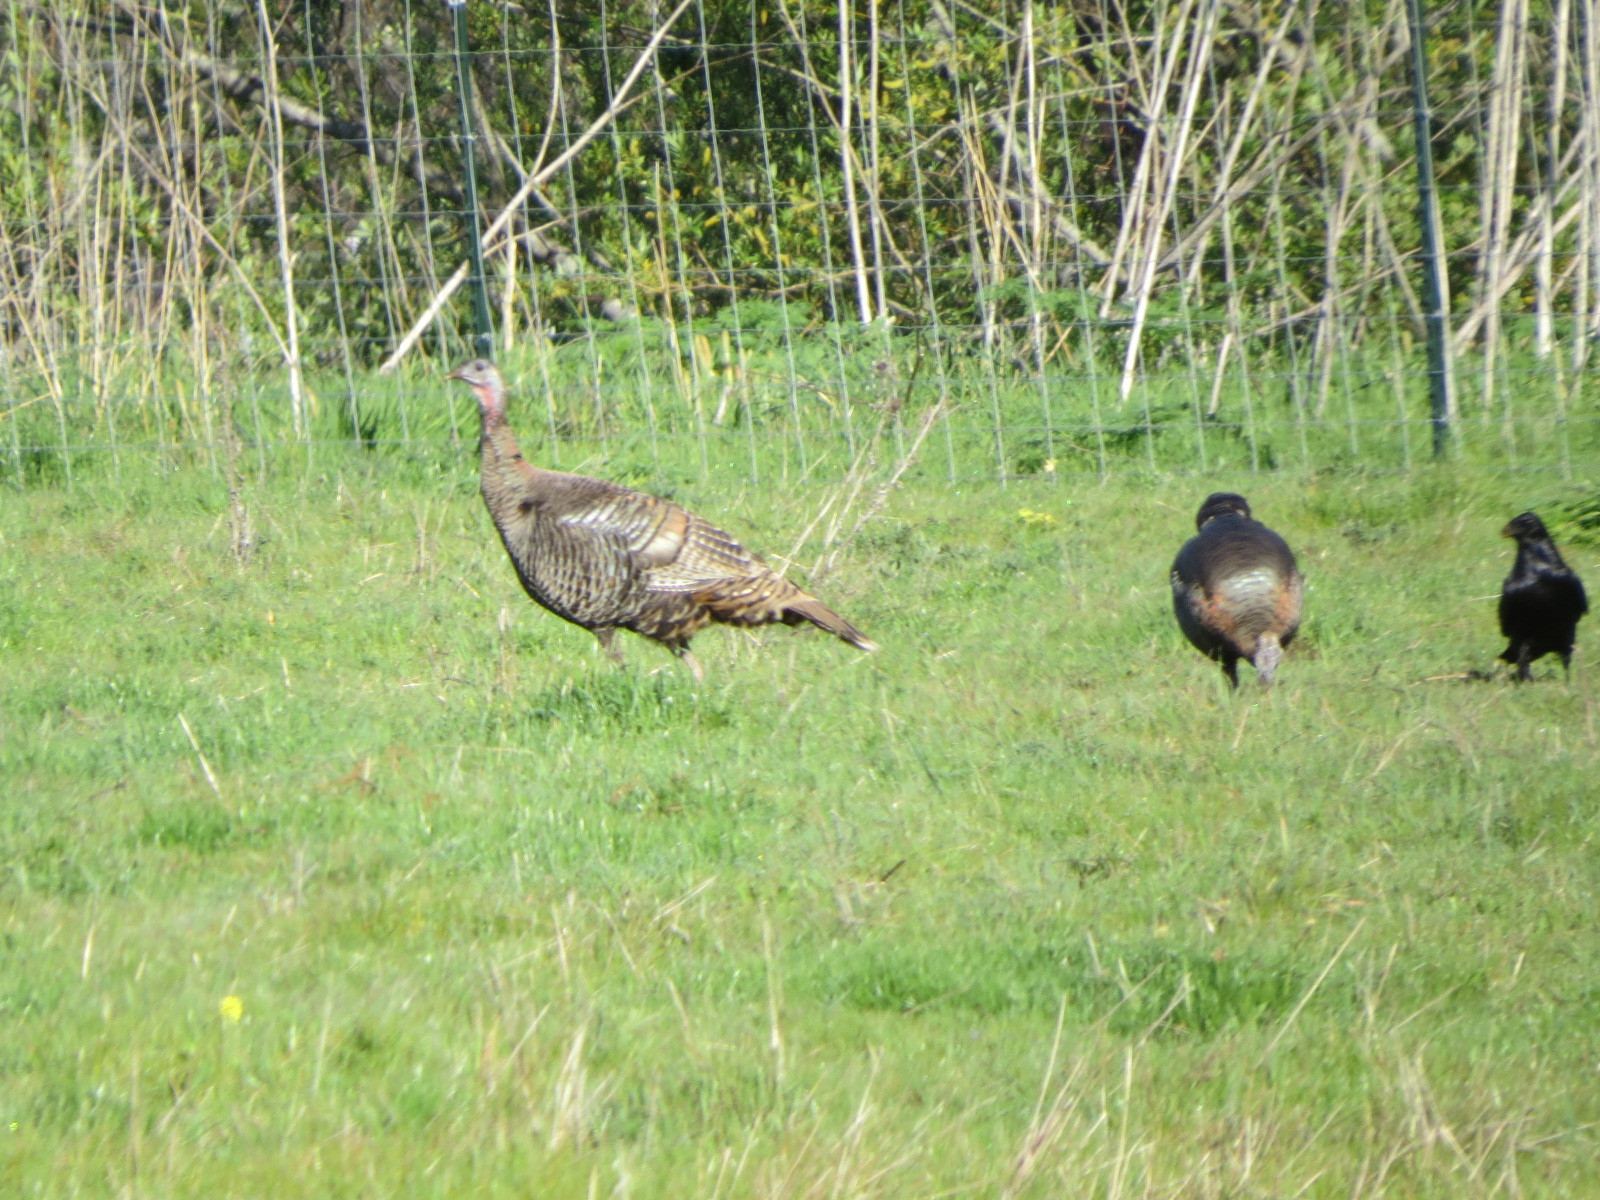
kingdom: Animalia
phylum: Chordata
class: Aves
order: Galliformes
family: Phasianidae
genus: Meleagris
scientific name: Meleagris gallopavo
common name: Wild turkey
